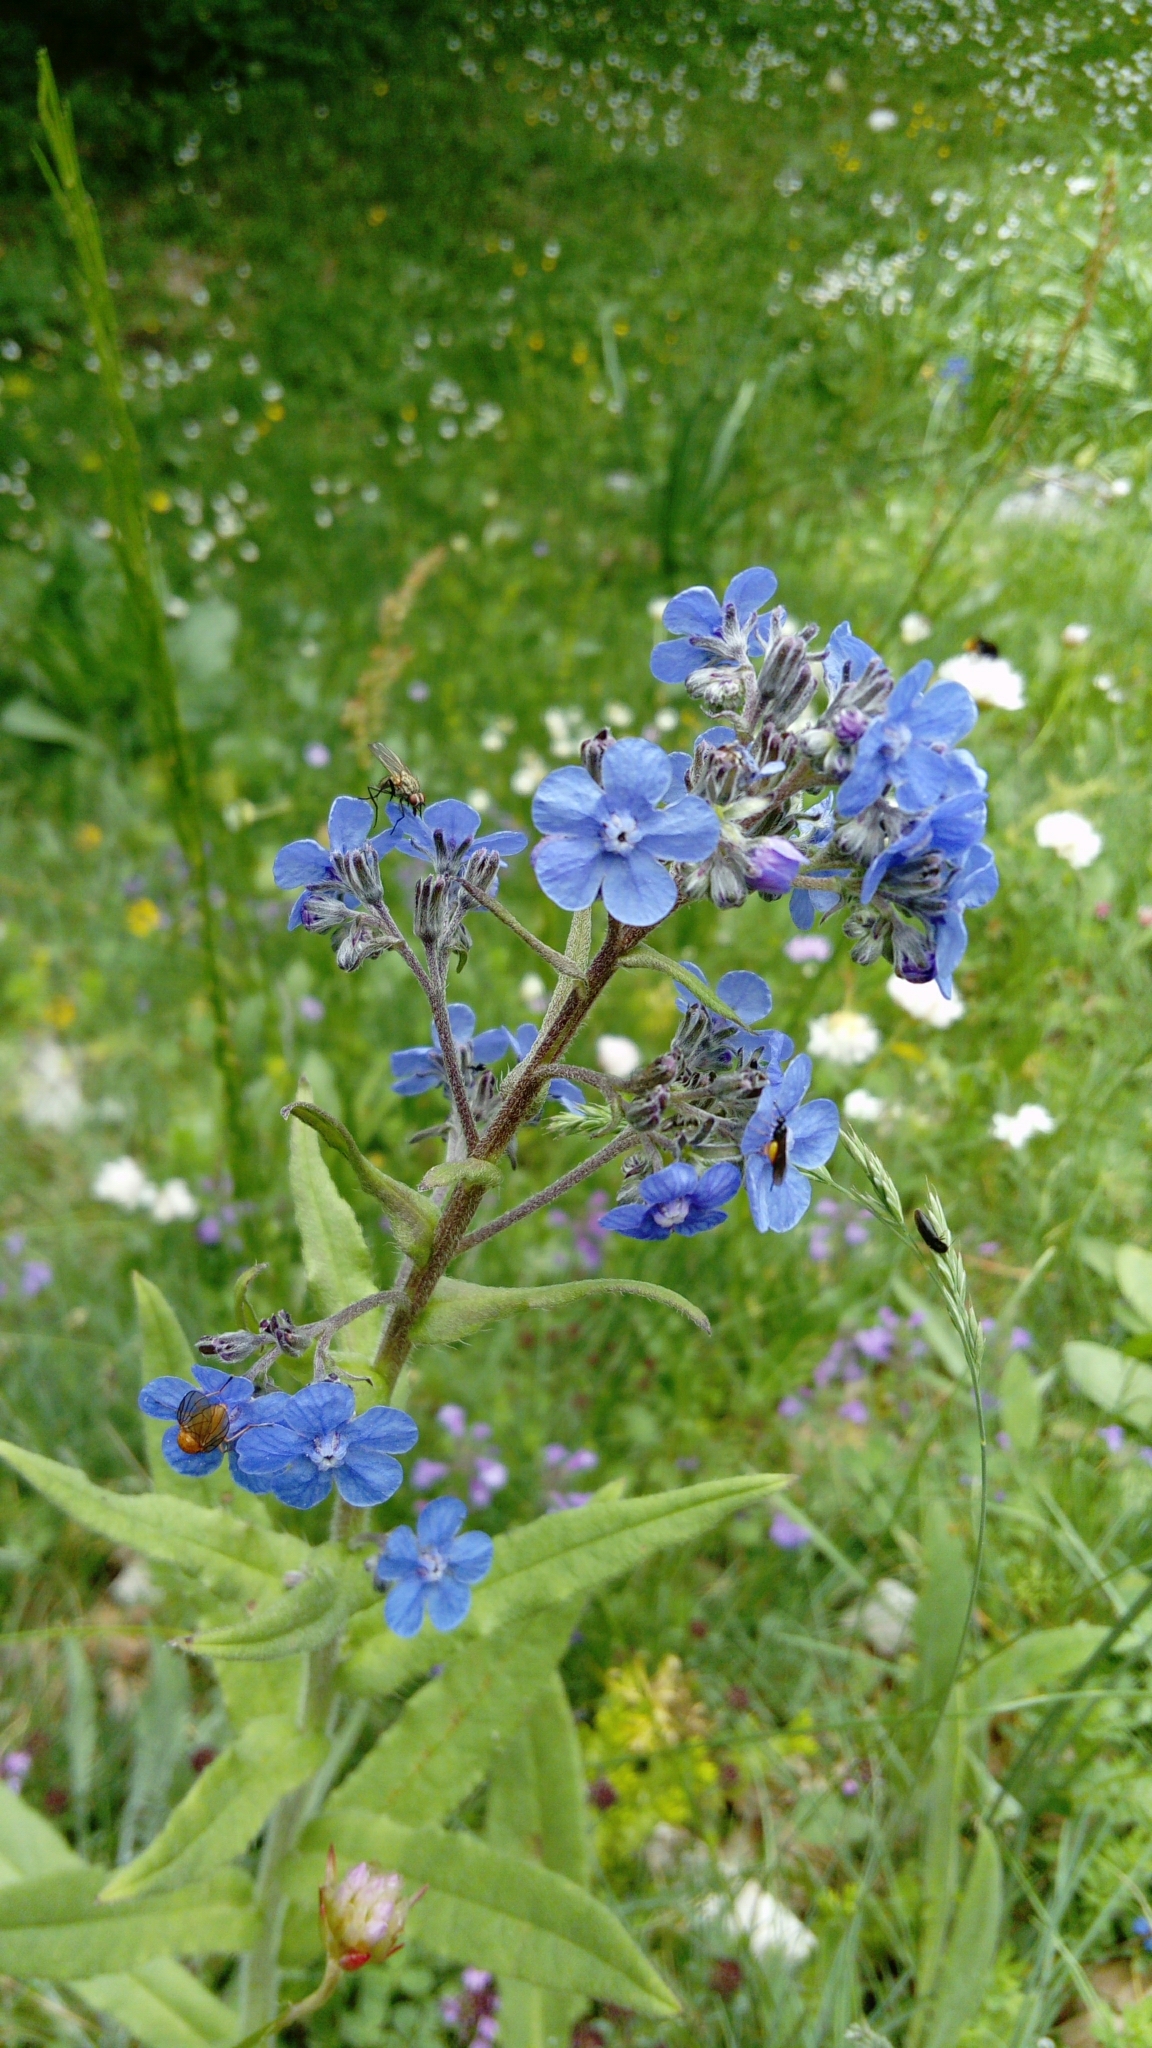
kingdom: Plantae
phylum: Tracheophyta
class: Magnoliopsida
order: Boraginales
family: Boraginaceae
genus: Cynoglottis
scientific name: Cynoglottis barrelieri
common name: False alkanet
